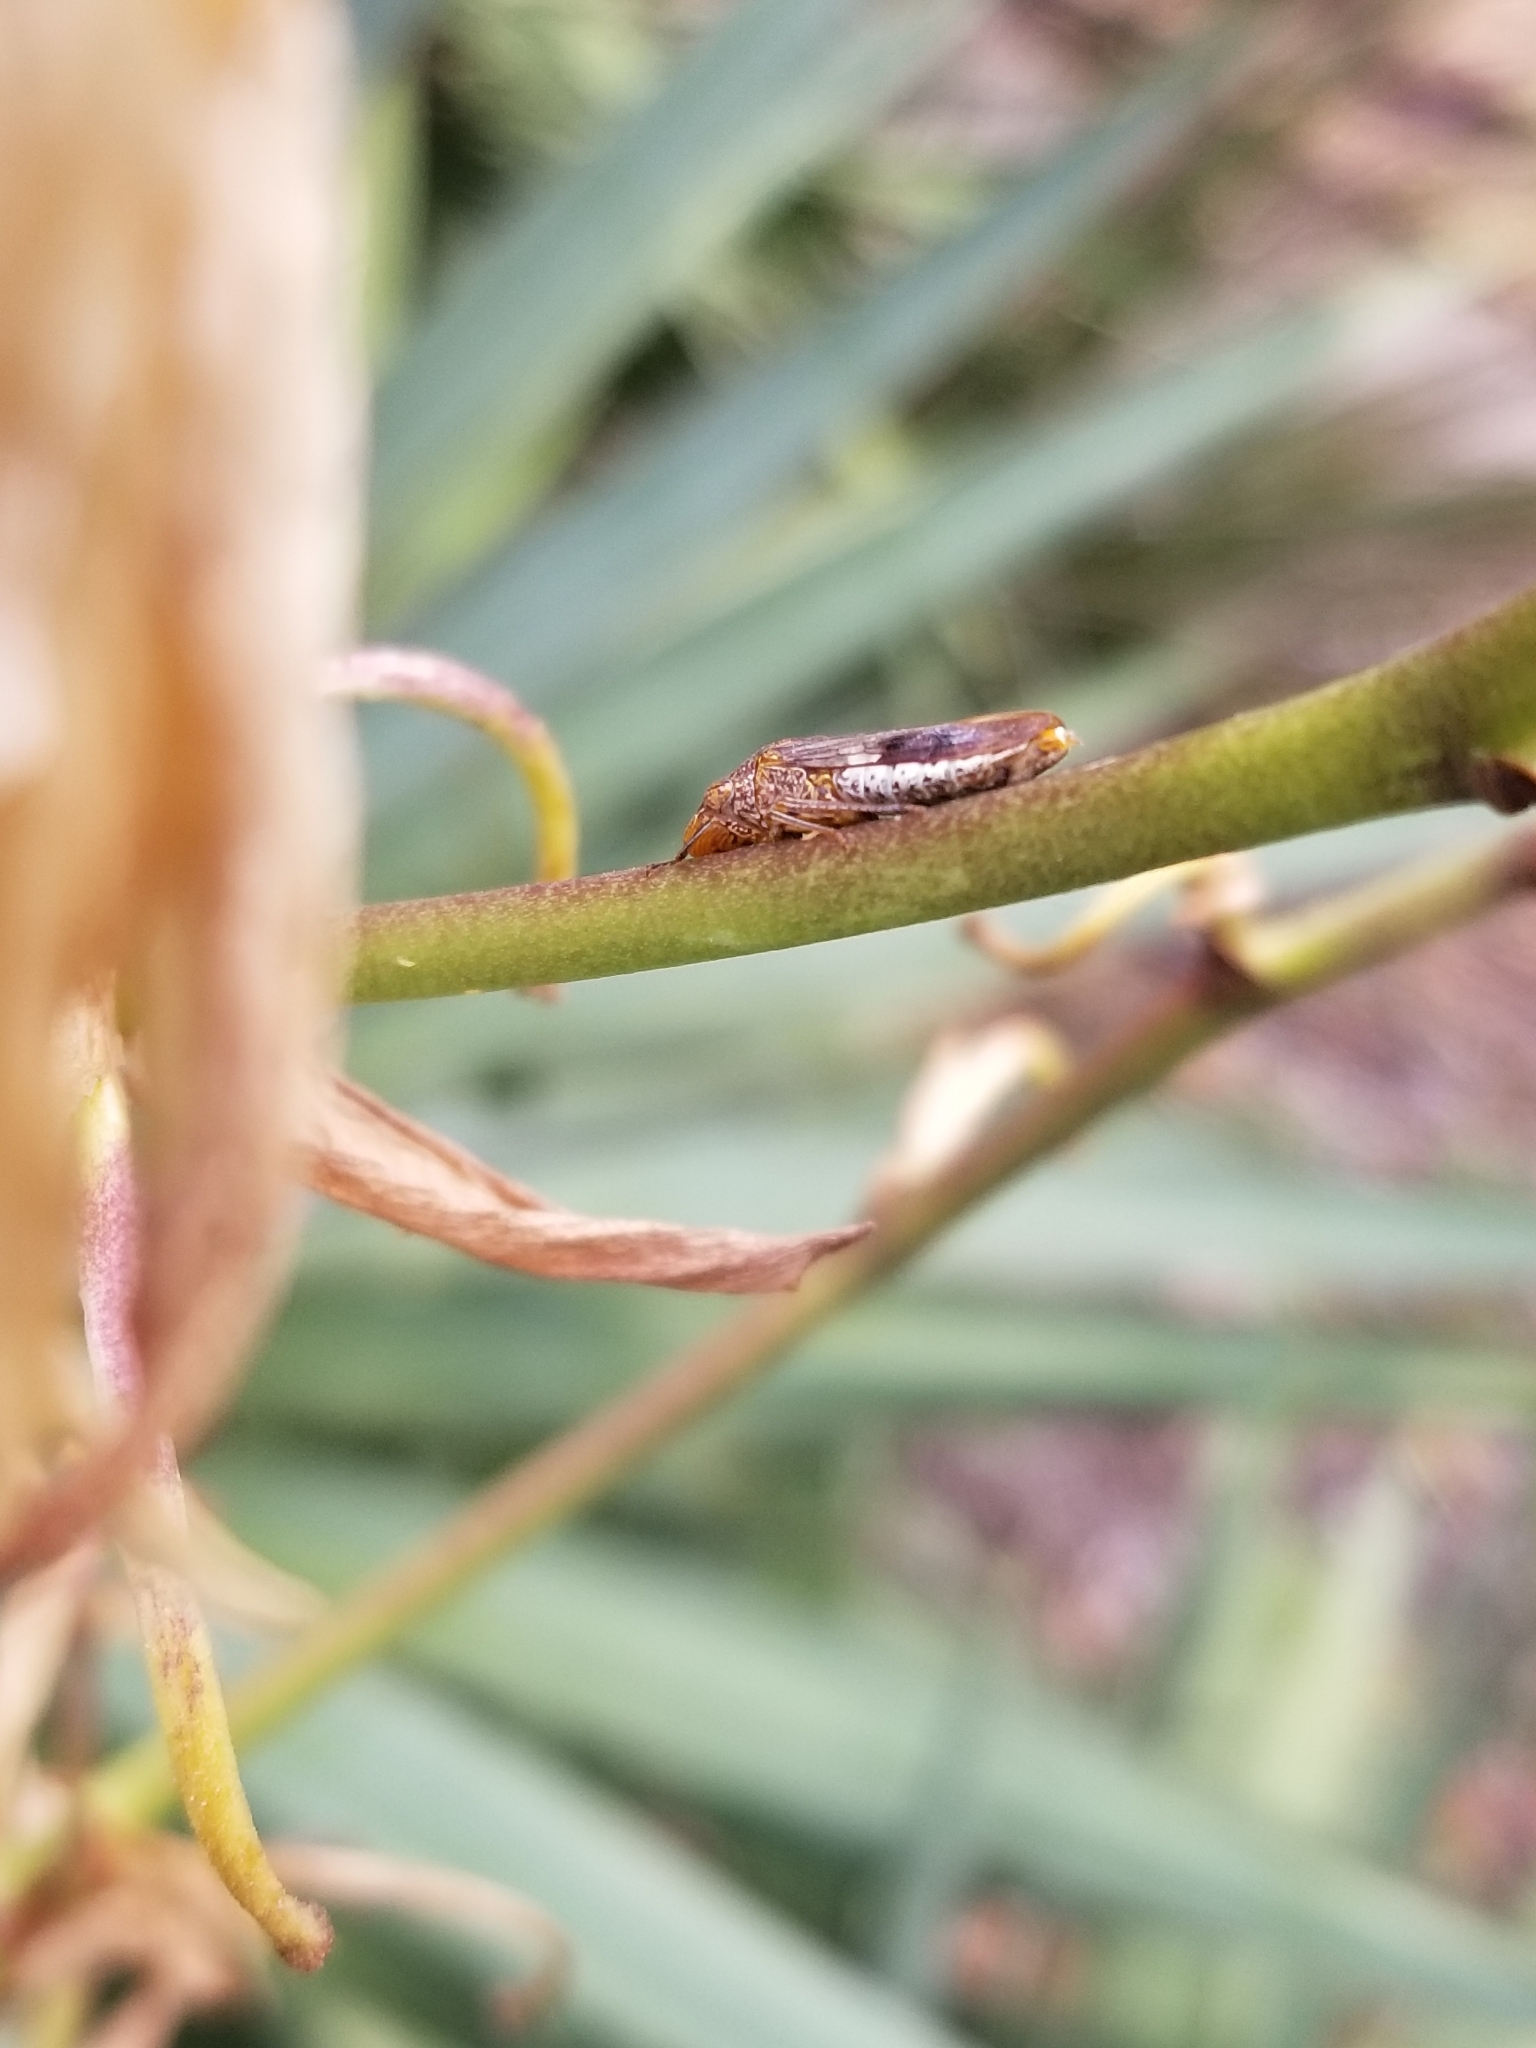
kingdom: Animalia
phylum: Arthropoda
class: Insecta
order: Hemiptera
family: Cicadellidae
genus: Homalodisca
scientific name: Homalodisca vitripennis
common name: Glassy-winged sharpshooter
